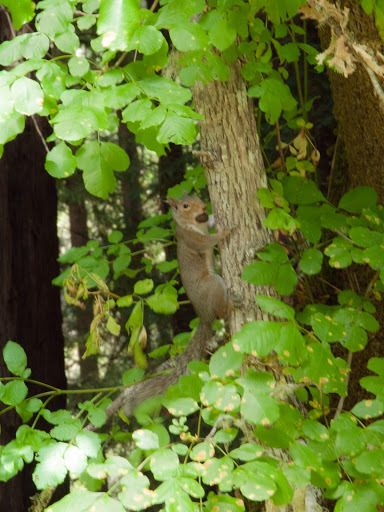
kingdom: Animalia
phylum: Chordata
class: Mammalia
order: Rodentia
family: Sciuridae
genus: Sciurus
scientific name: Sciurus carolinensis
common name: Eastern gray squirrel
